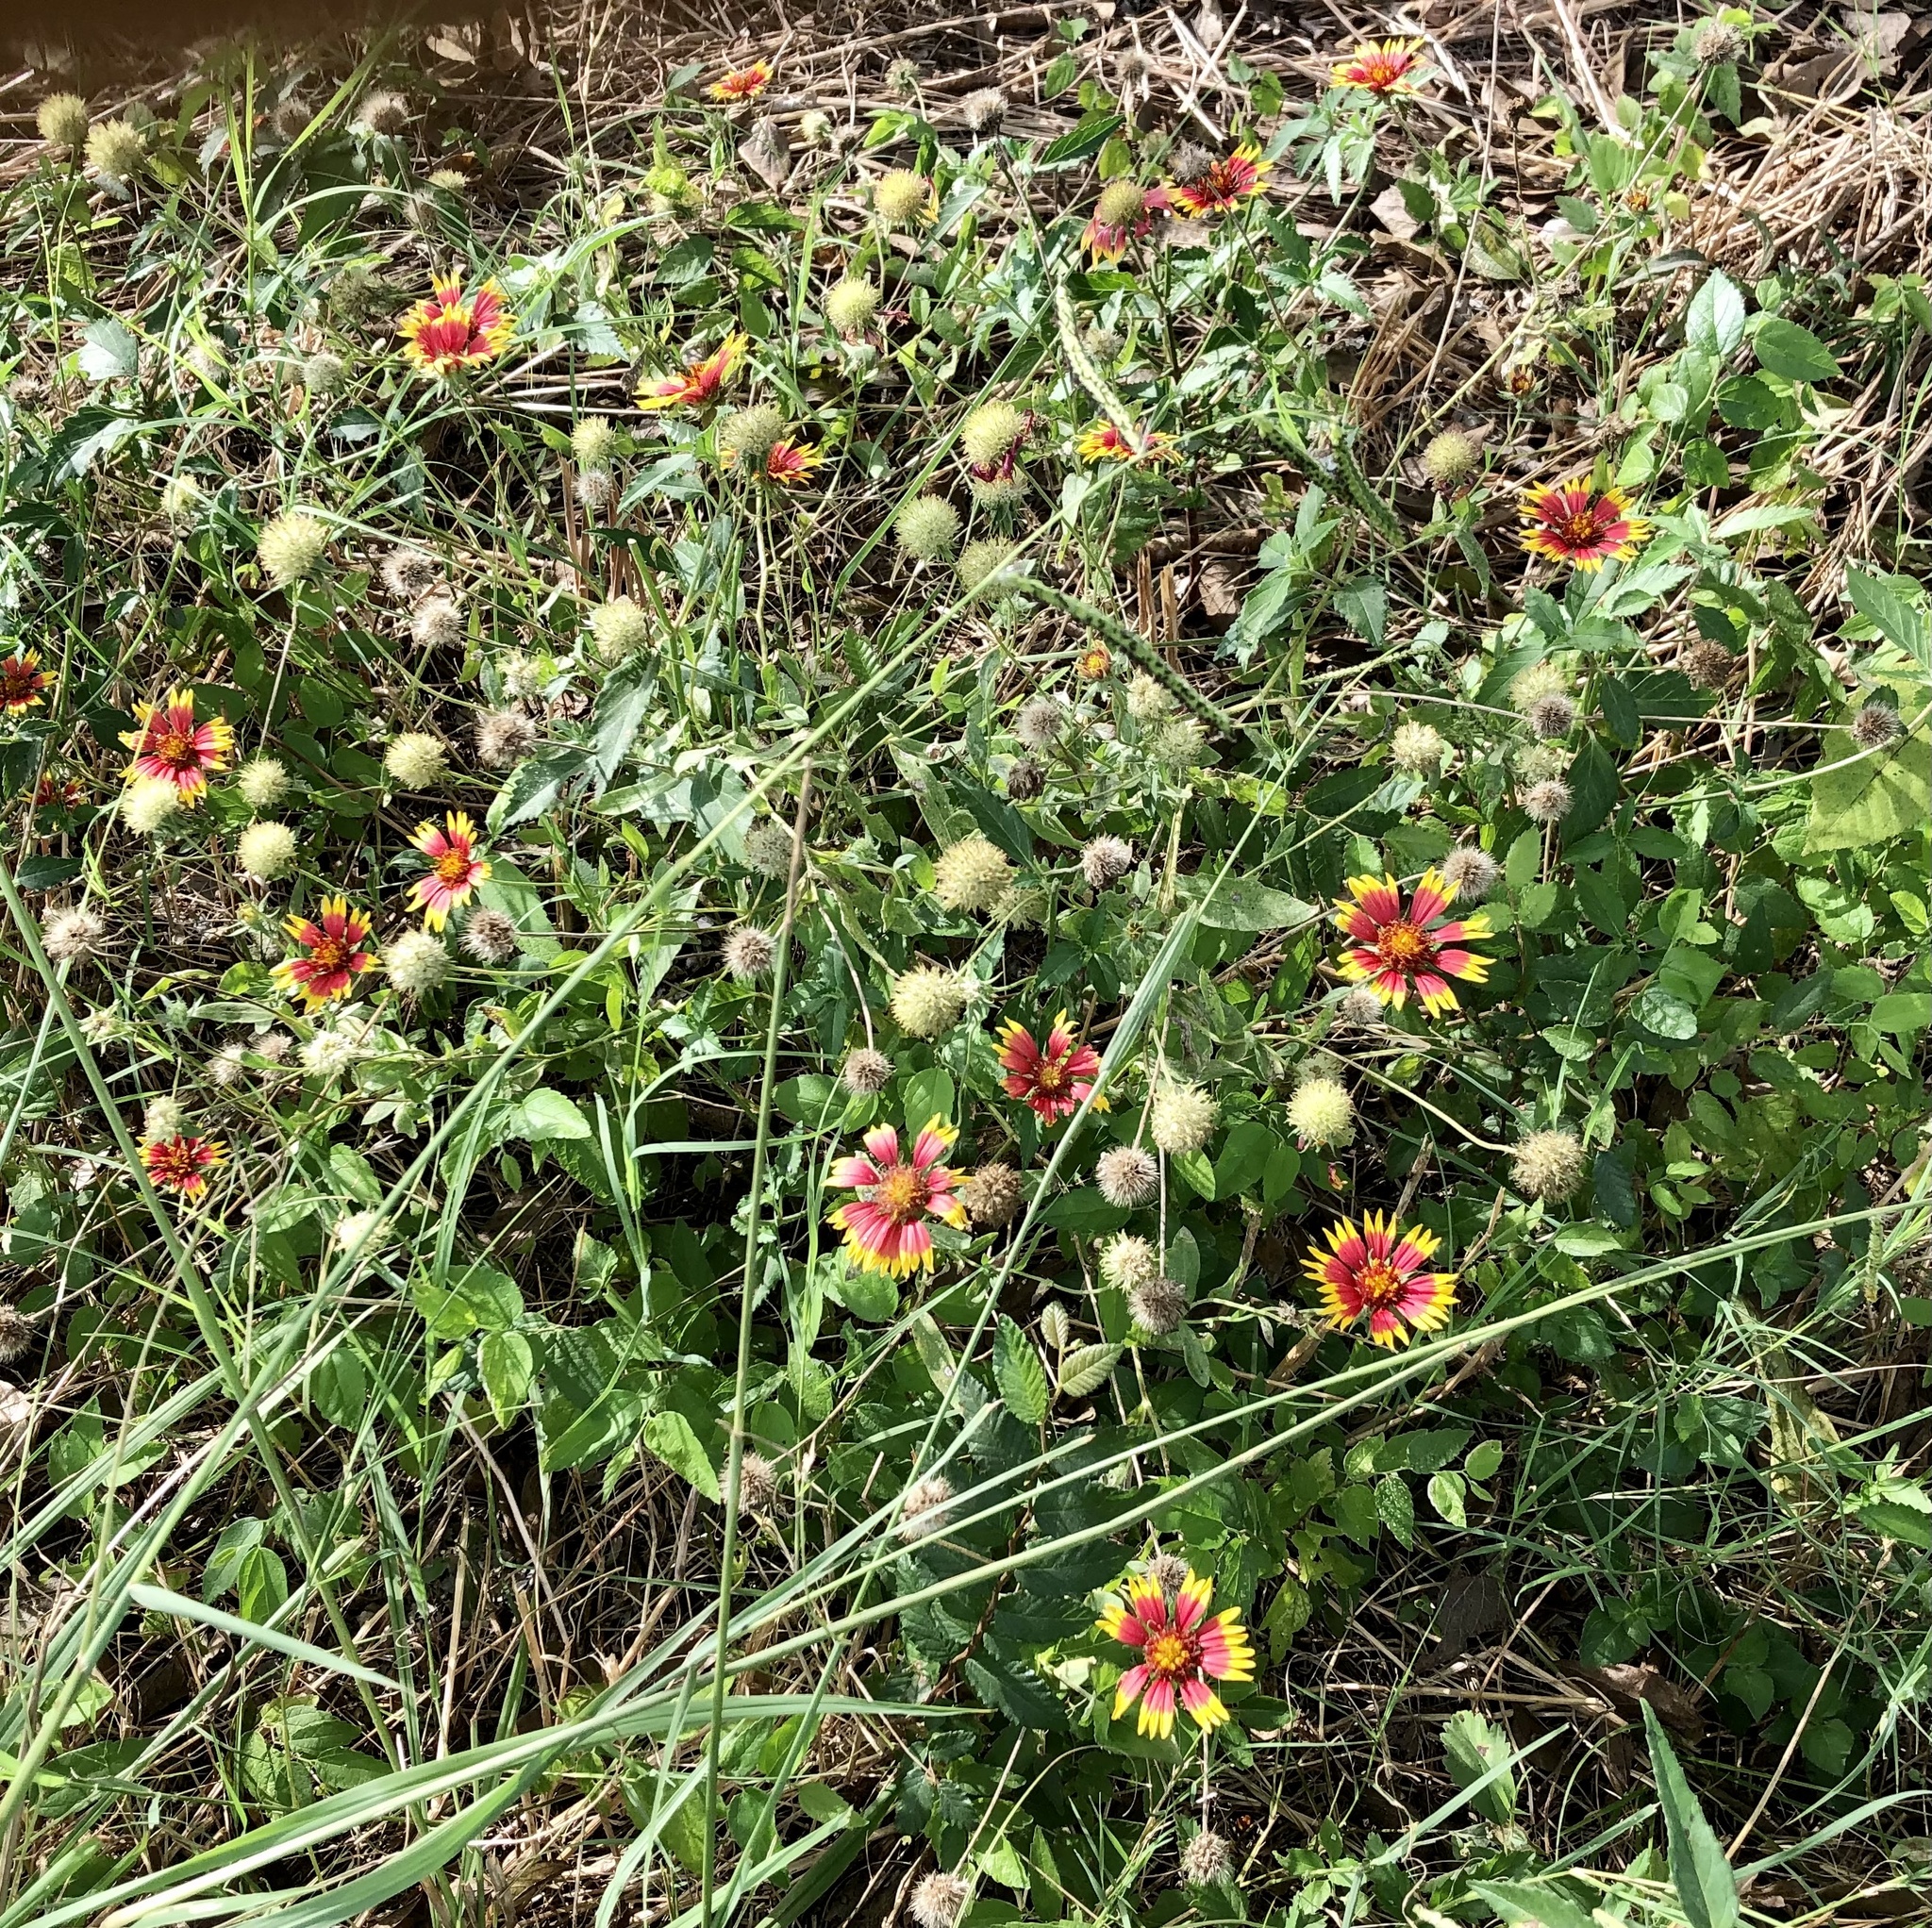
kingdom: Plantae
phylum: Tracheophyta
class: Magnoliopsida
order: Asterales
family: Asteraceae
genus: Gaillardia
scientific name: Gaillardia pulchella
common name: Firewheel
